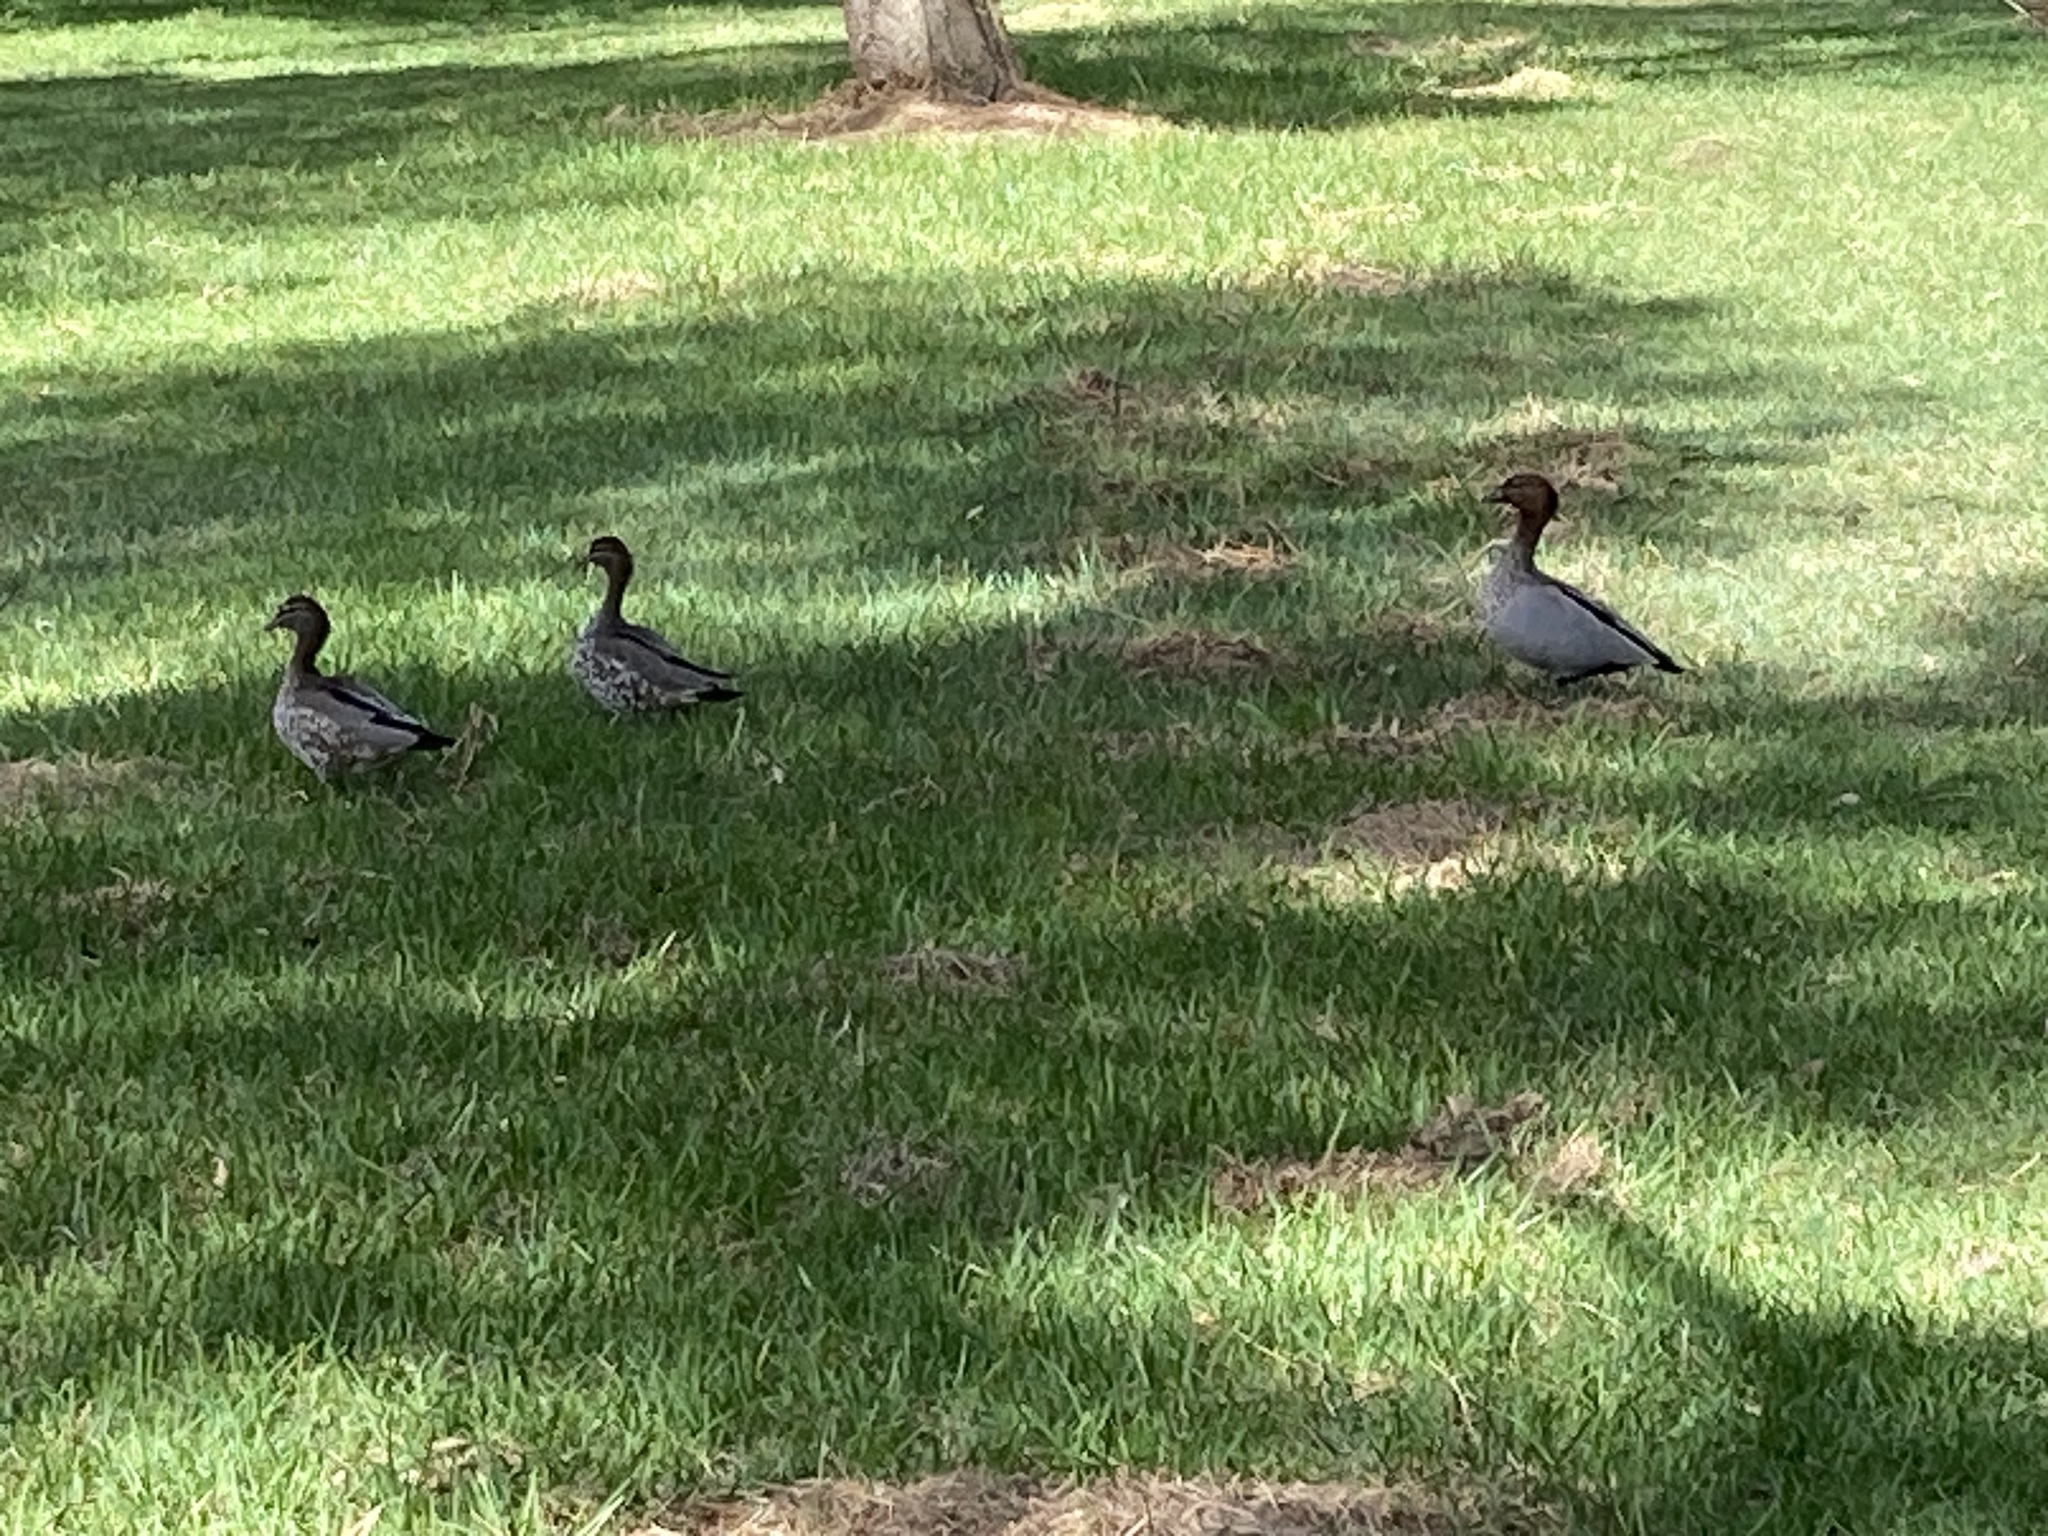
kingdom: Animalia
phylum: Chordata
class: Aves
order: Anseriformes
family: Anatidae
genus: Chenonetta
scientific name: Chenonetta jubata
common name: Maned duck
